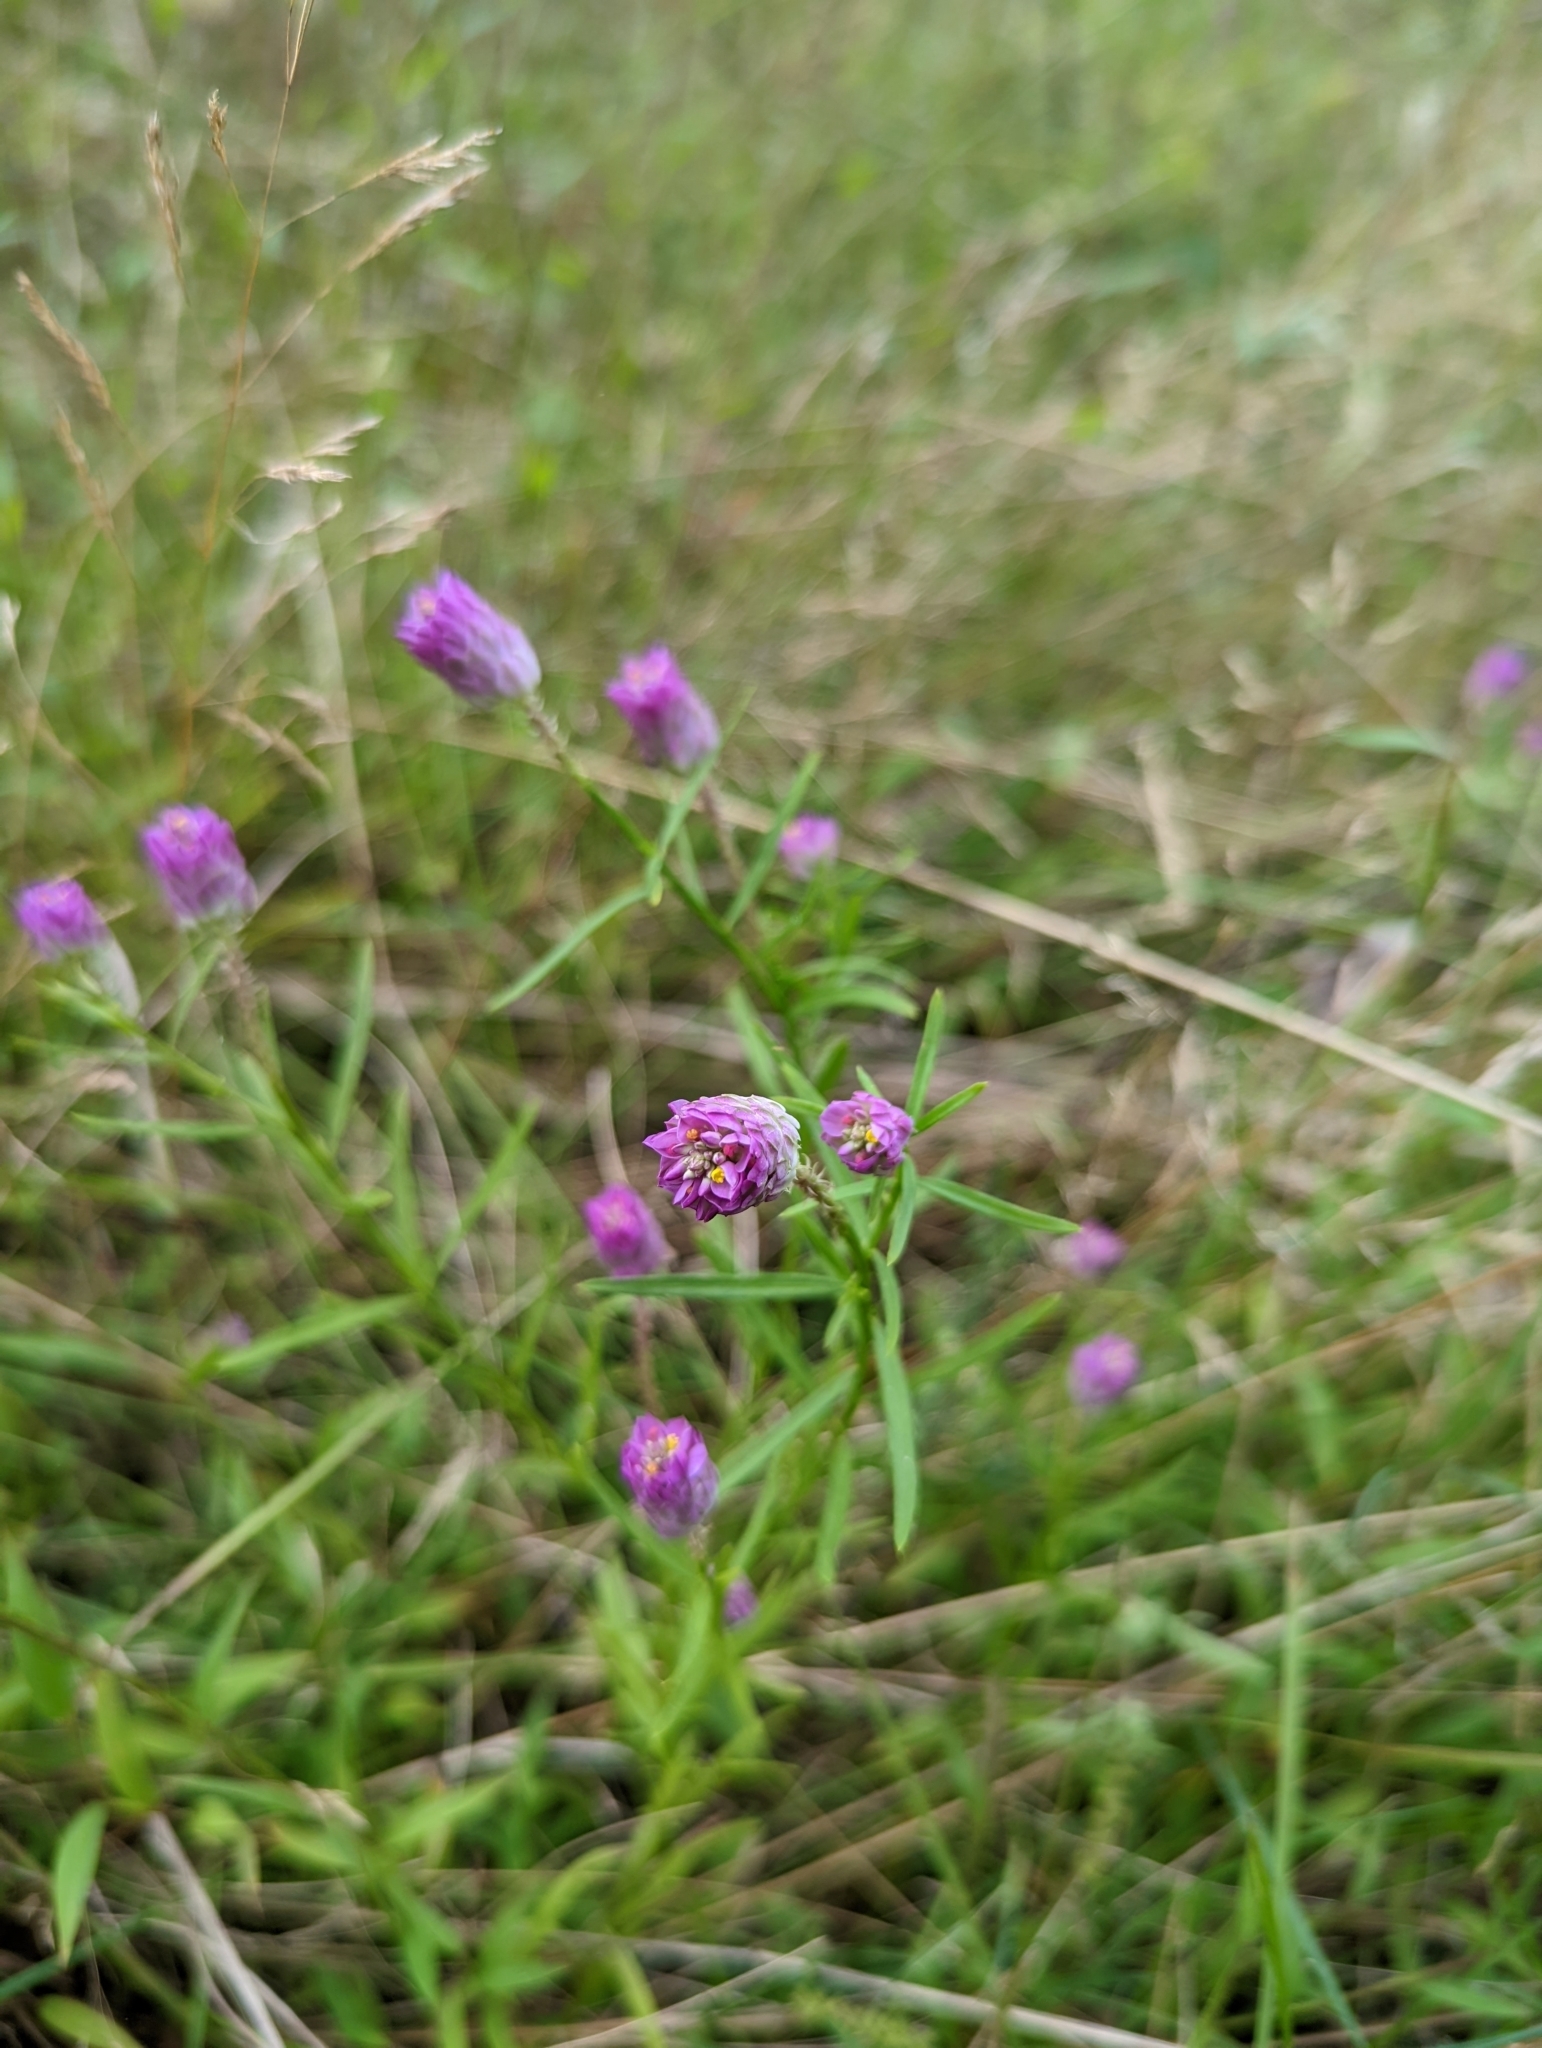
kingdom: Plantae
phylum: Tracheophyta
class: Magnoliopsida
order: Fabales
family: Polygalaceae
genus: Polygala
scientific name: Polygala sanguinea
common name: Blood milkwort
